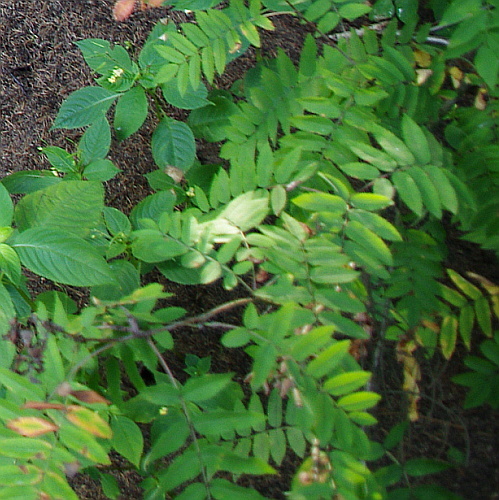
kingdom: Plantae
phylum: Tracheophyta
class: Magnoliopsida
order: Rosales
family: Rosaceae
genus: Sorbus
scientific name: Sorbus aucuparia
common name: Rowan
